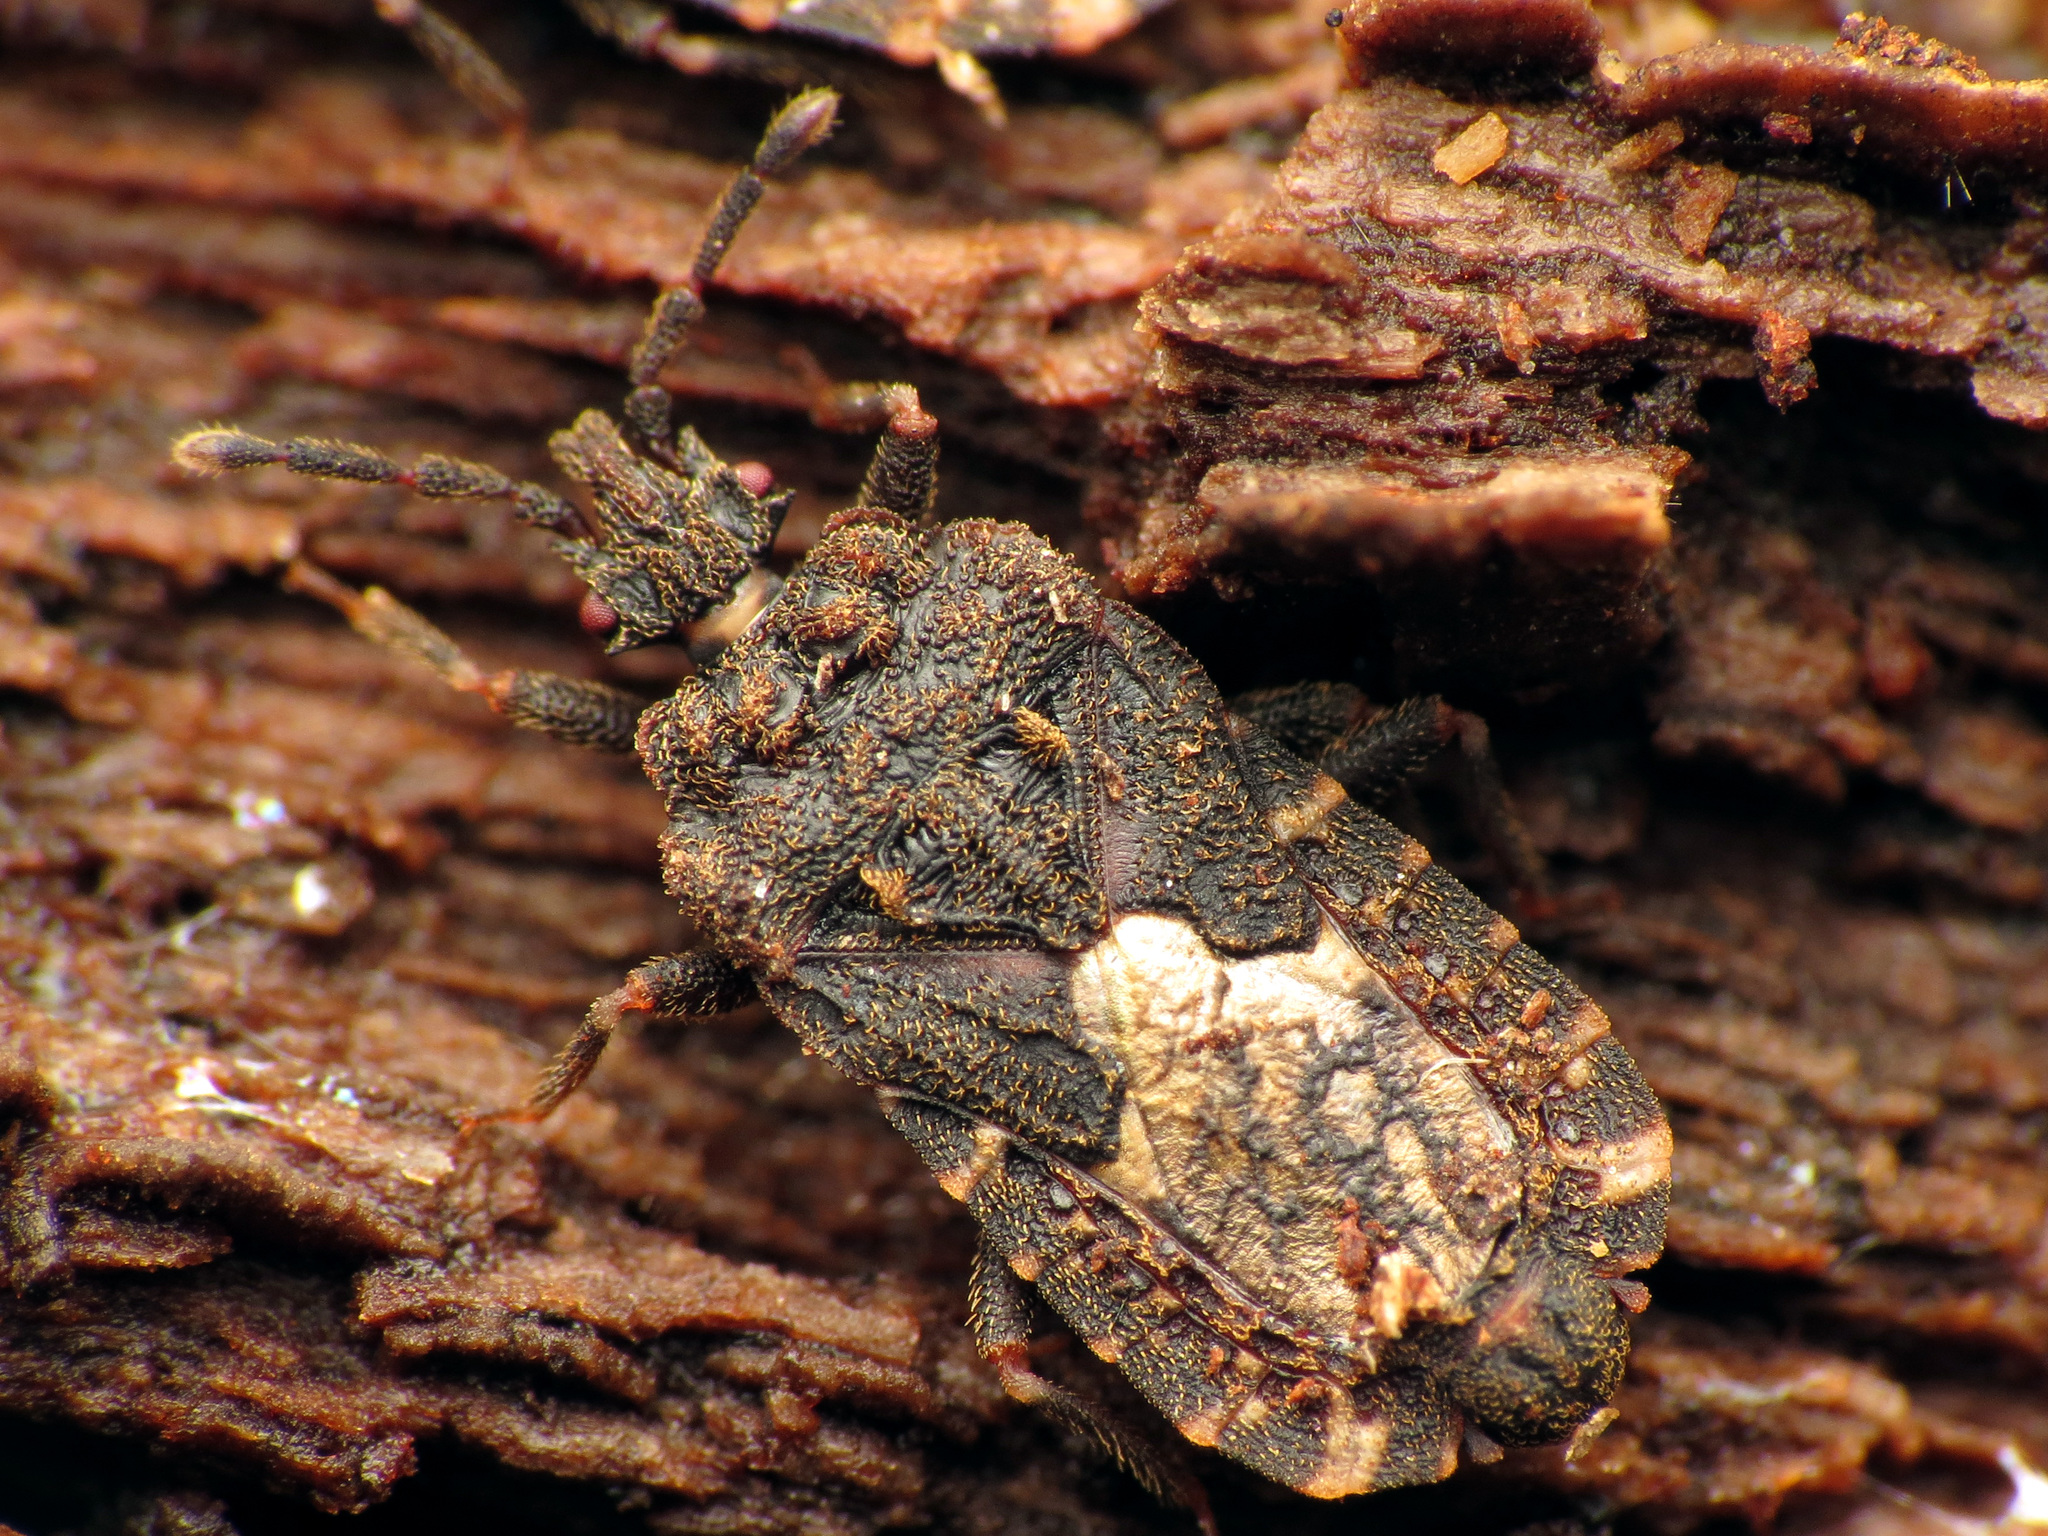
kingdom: Animalia
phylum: Arthropoda
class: Insecta
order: Hemiptera
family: Aradidae
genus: Mezira
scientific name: Mezira
